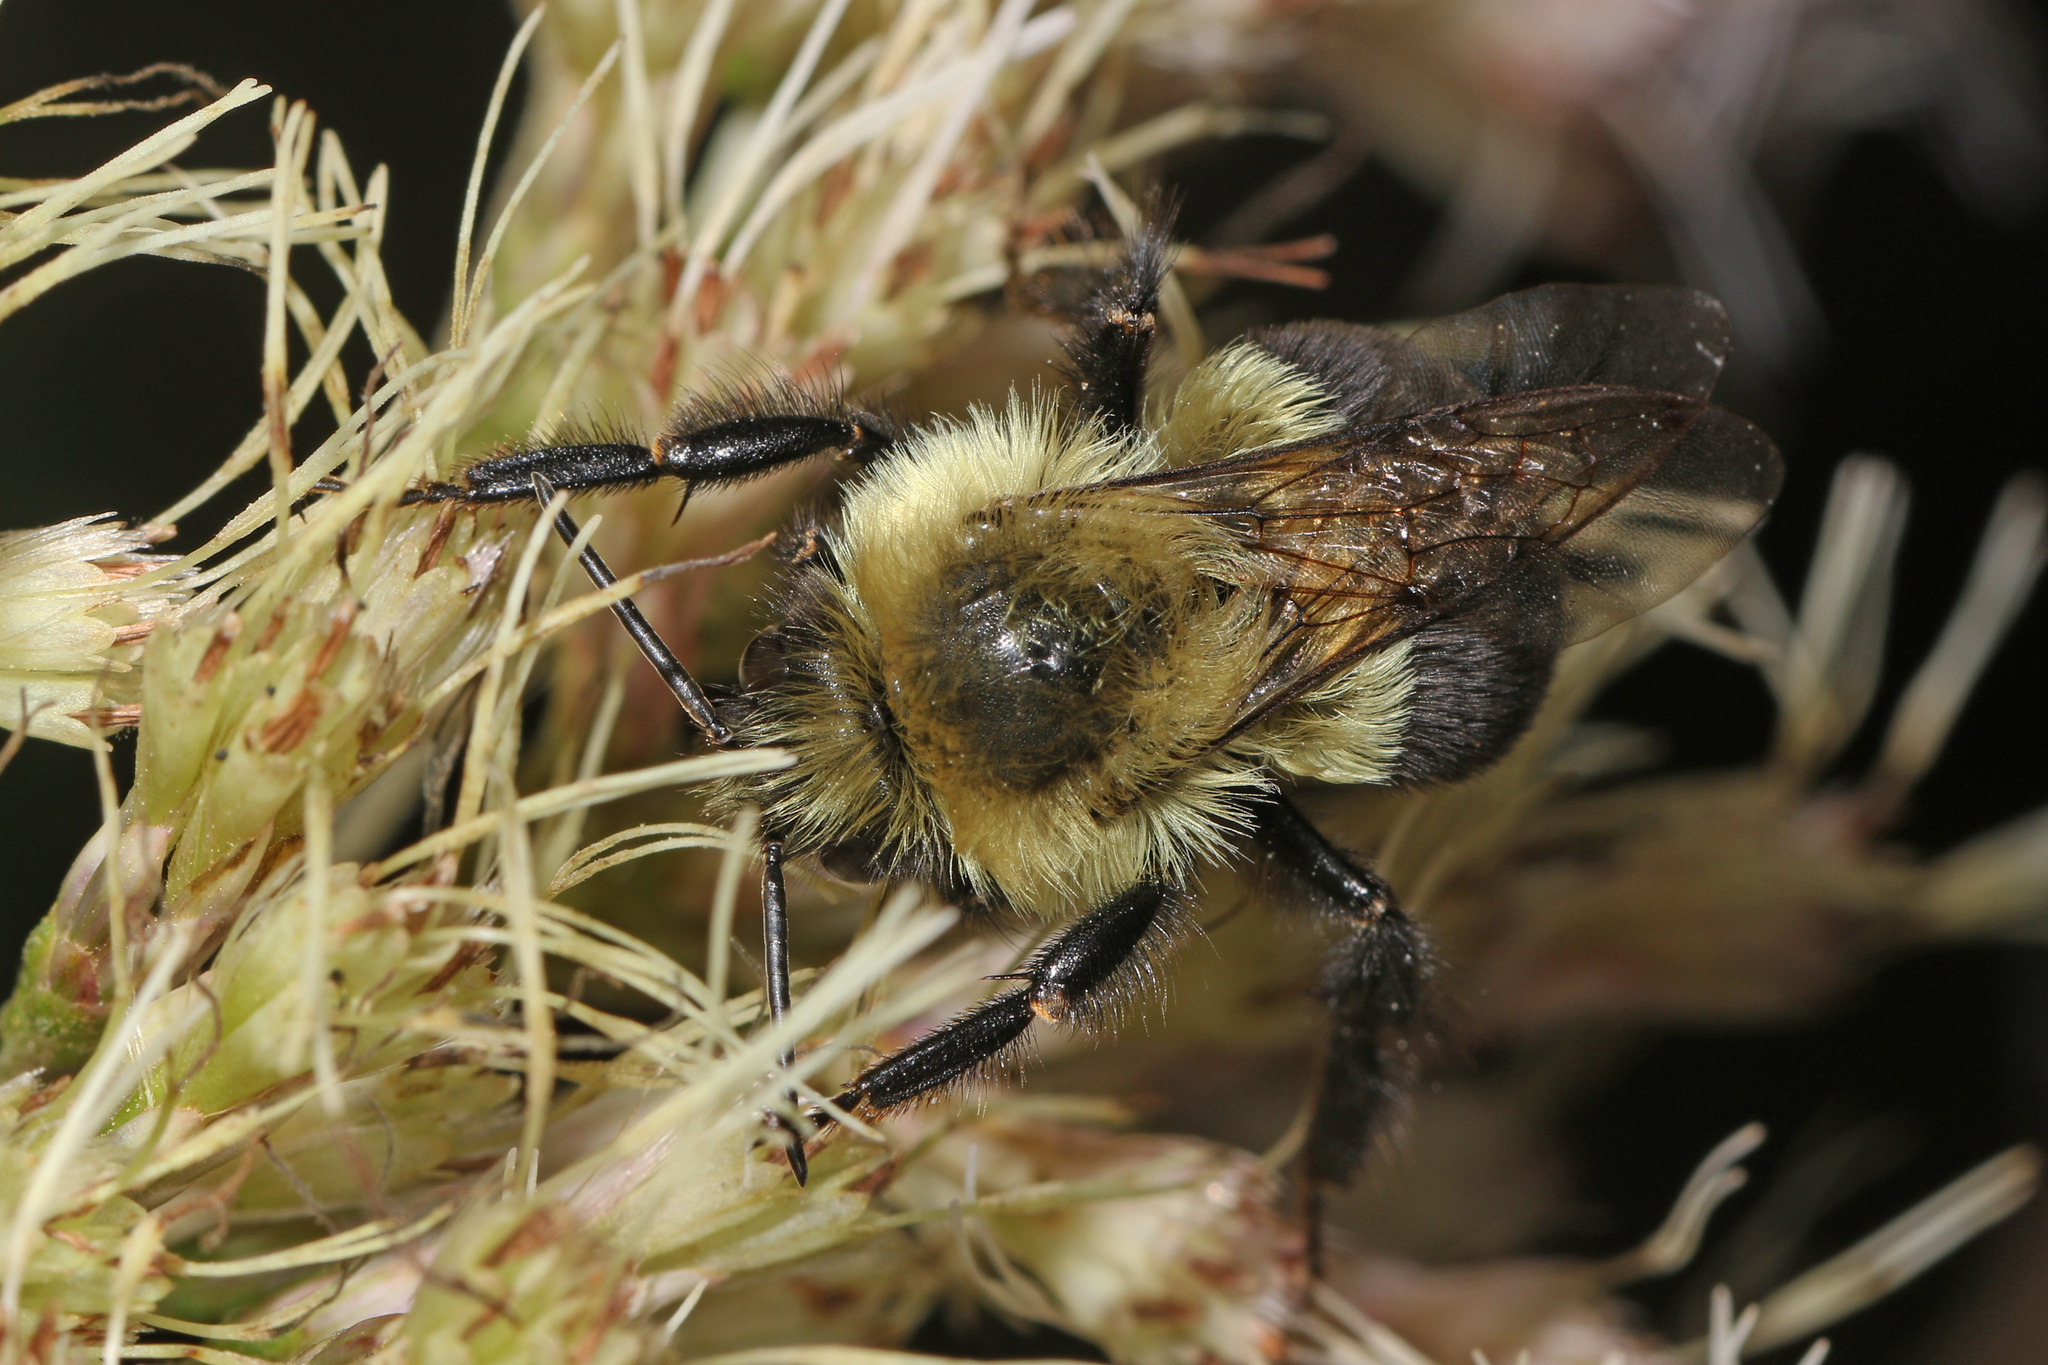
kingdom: Animalia
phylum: Arthropoda
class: Insecta
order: Hymenoptera
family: Apidae
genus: Bombus
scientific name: Bombus impatiens
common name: Common eastern bumble bee
